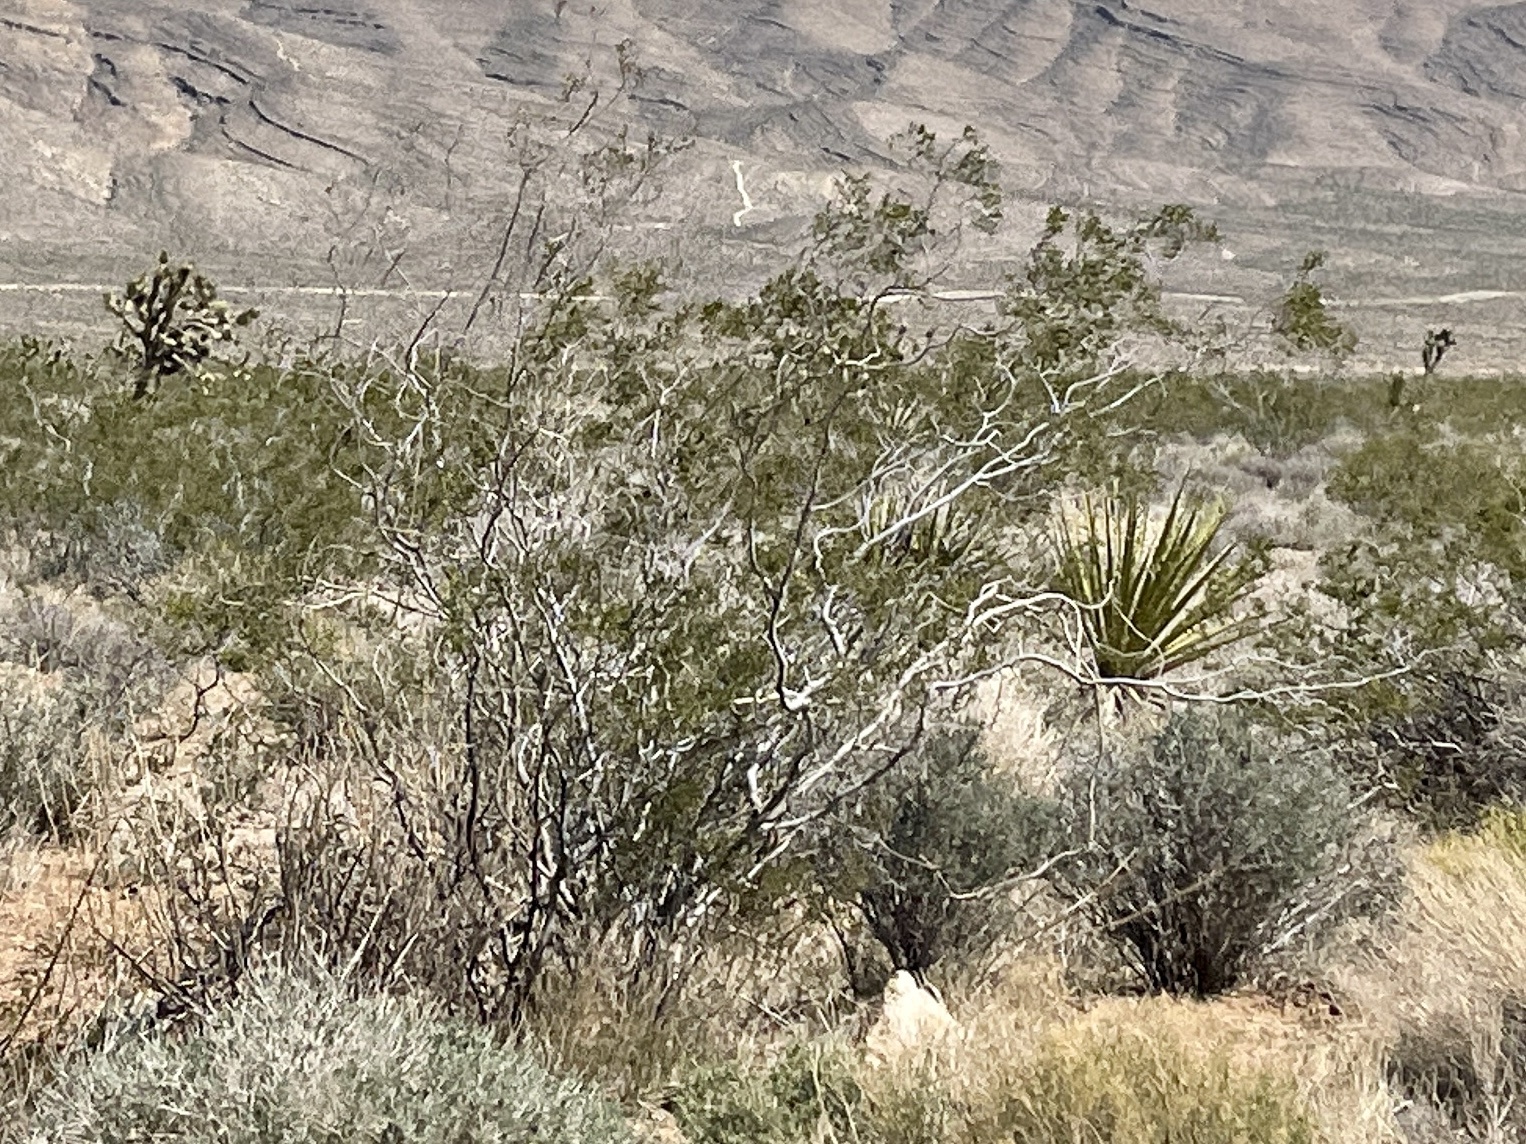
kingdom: Plantae
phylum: Tracheophyta
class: Magnoliopsida
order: Zygophyllales
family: Zygophyllaceae
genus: Larrea
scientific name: Larrea tridentata
